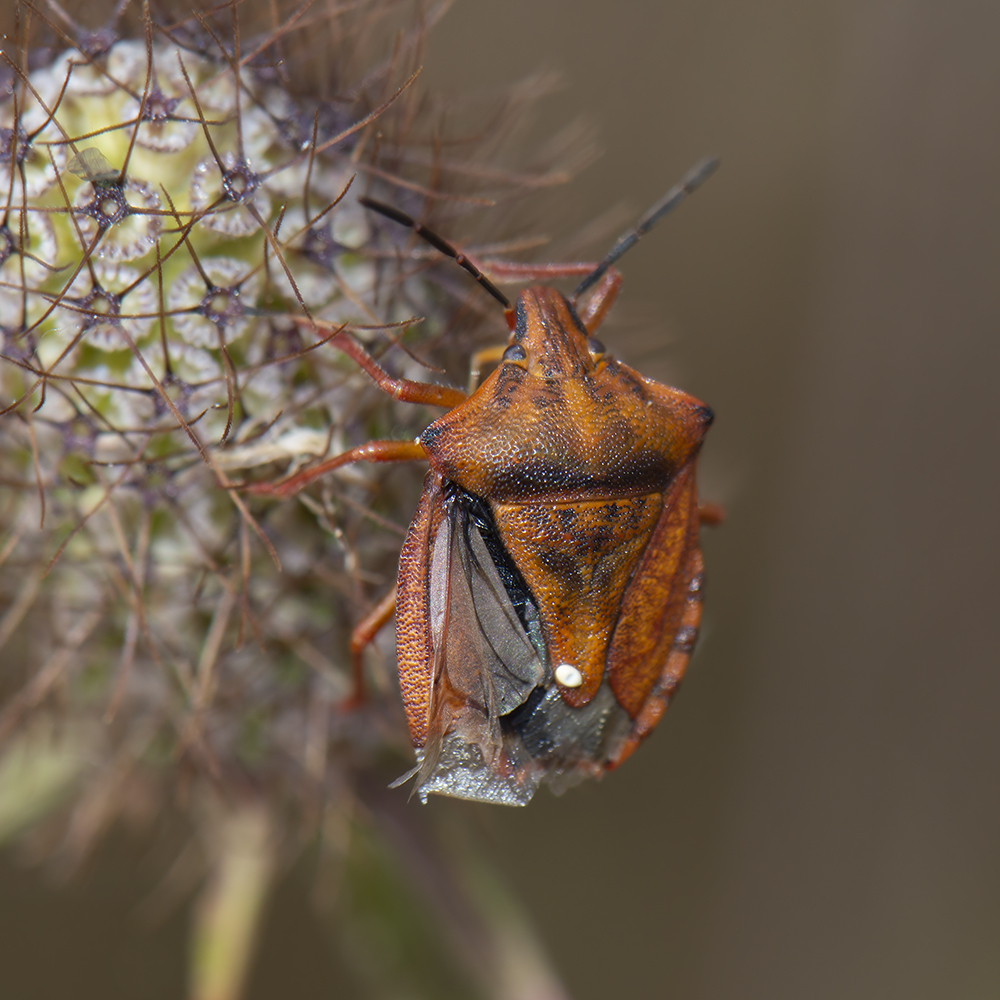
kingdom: Animalia
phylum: Arthropoda
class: Insecta
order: Hemiptera
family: Pentatomidae
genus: Carpocoris
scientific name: Carpocoris mediterraneus
